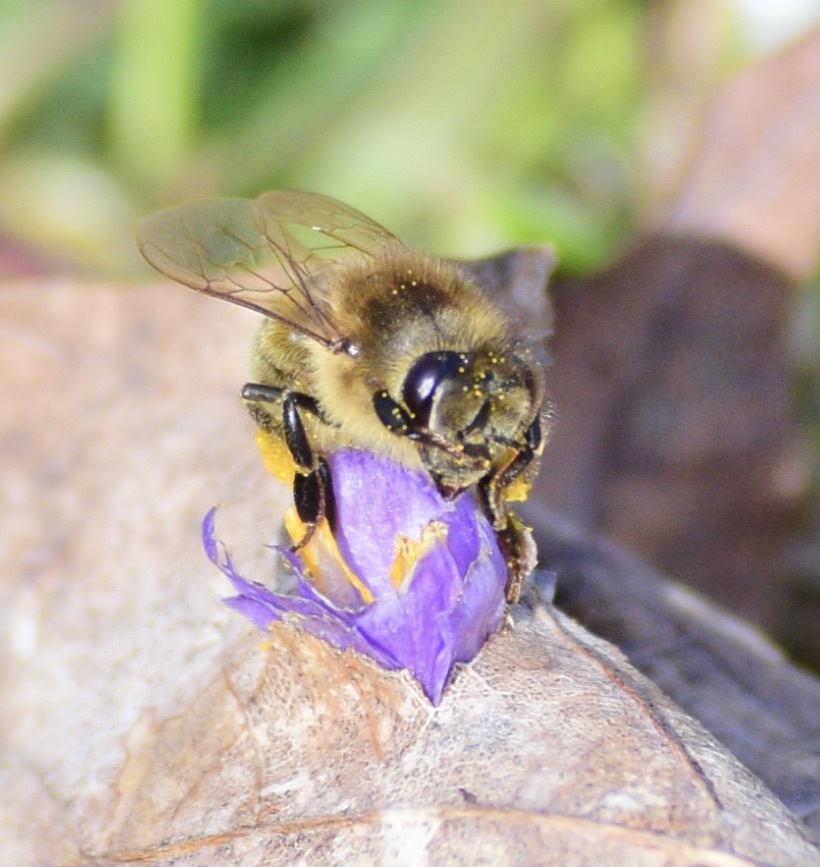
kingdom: Animalia
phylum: Arthropoda
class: Insecta
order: Hymenoptera
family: Apidae
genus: Apis
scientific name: Apis mellifera
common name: Honey bee
